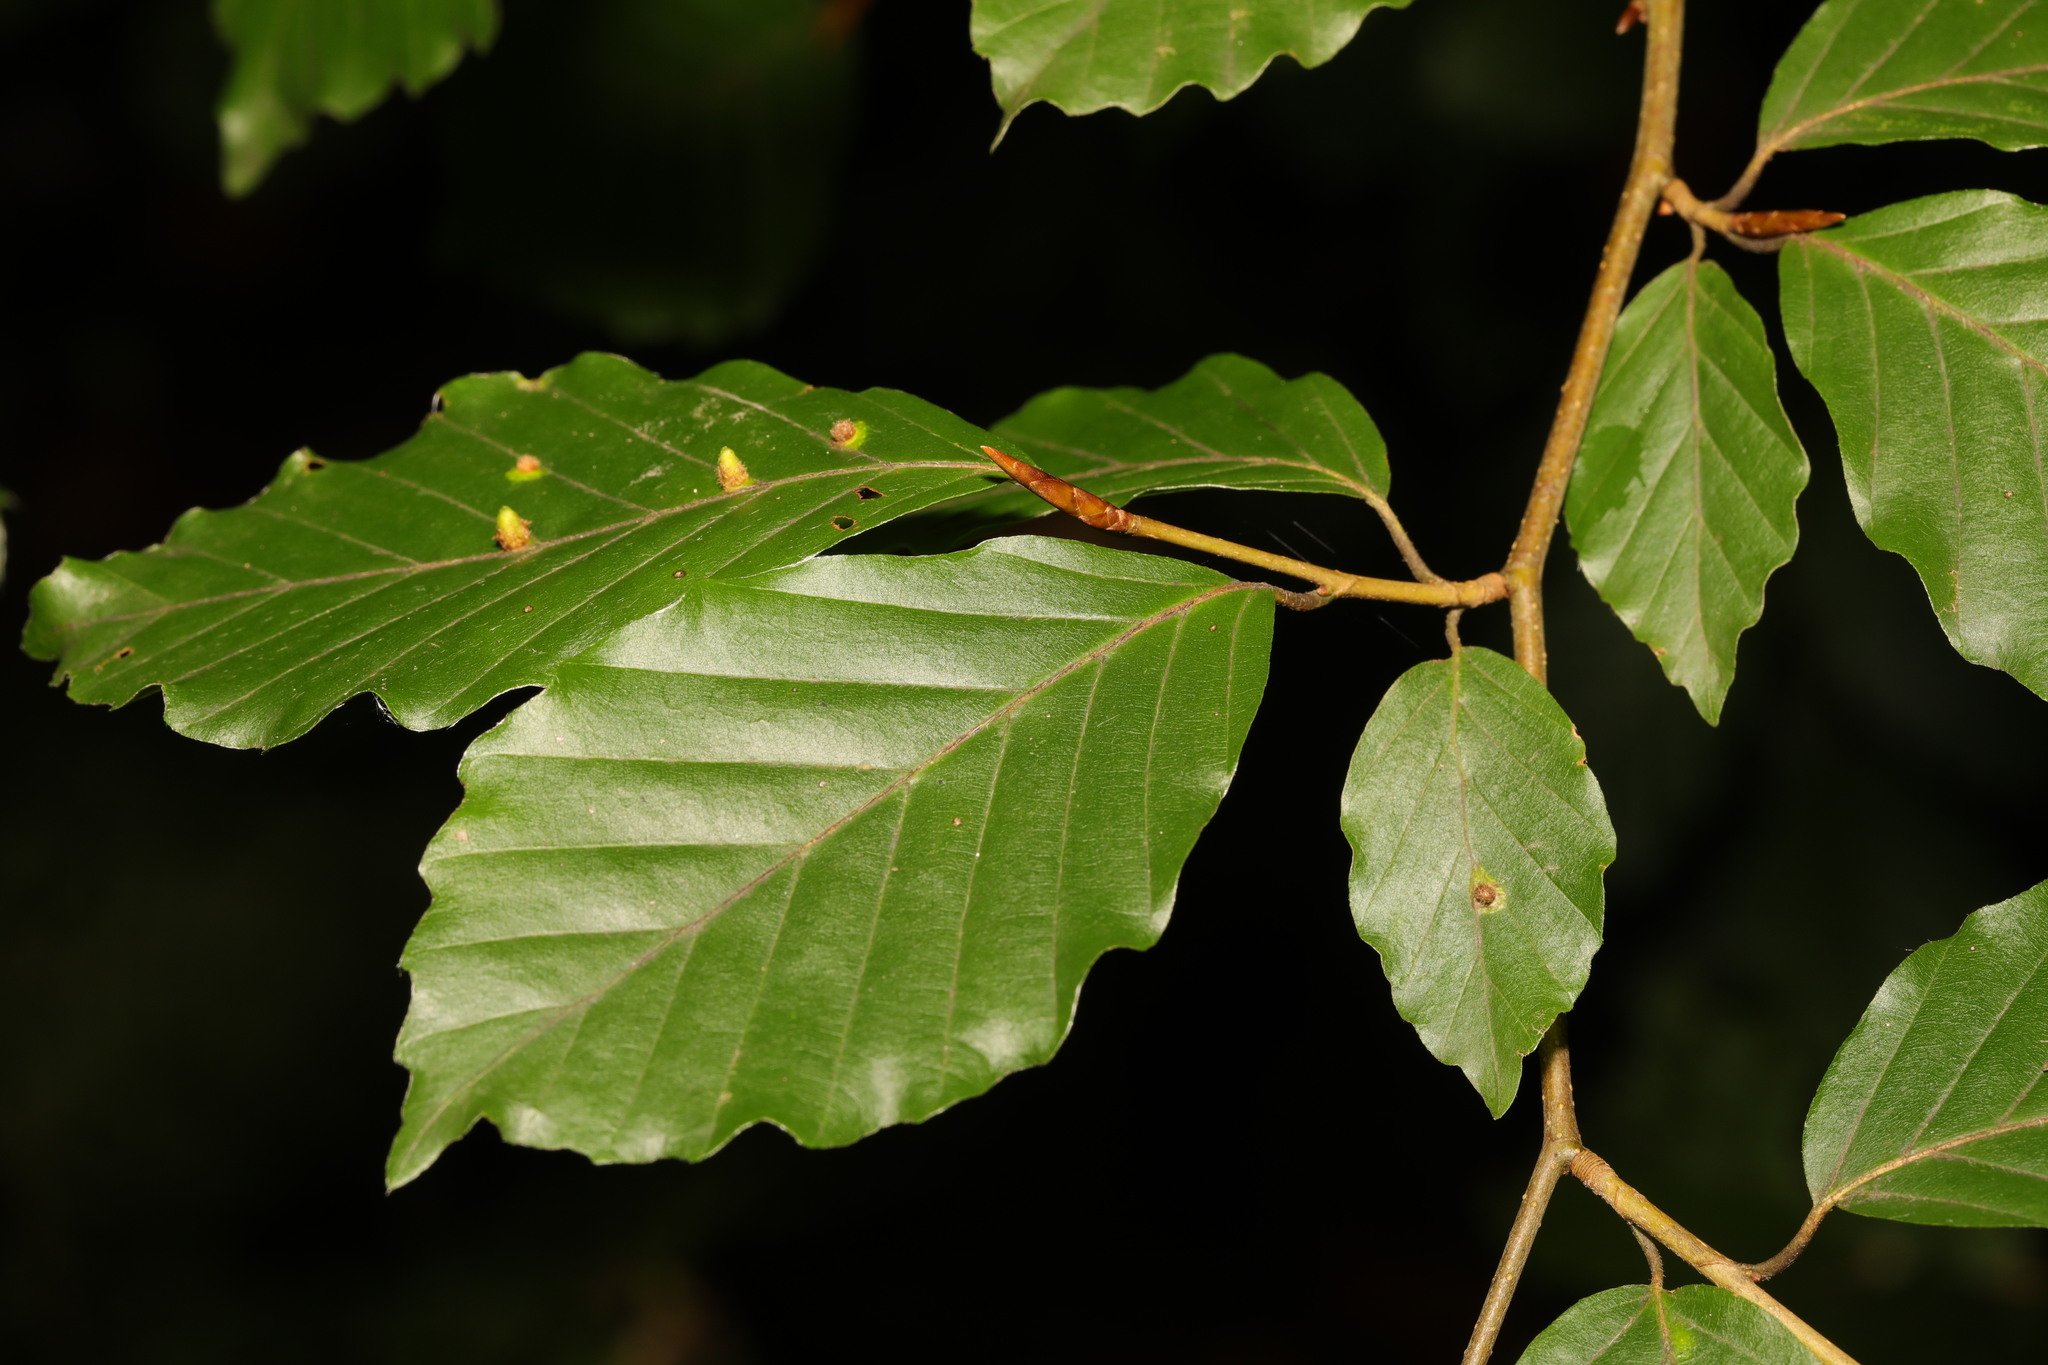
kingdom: Plantae
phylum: Tracheophyta
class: Magnoliopsida
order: Fagales
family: Fagaceae
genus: Fagus
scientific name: Fagus sylvatica
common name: Beech
